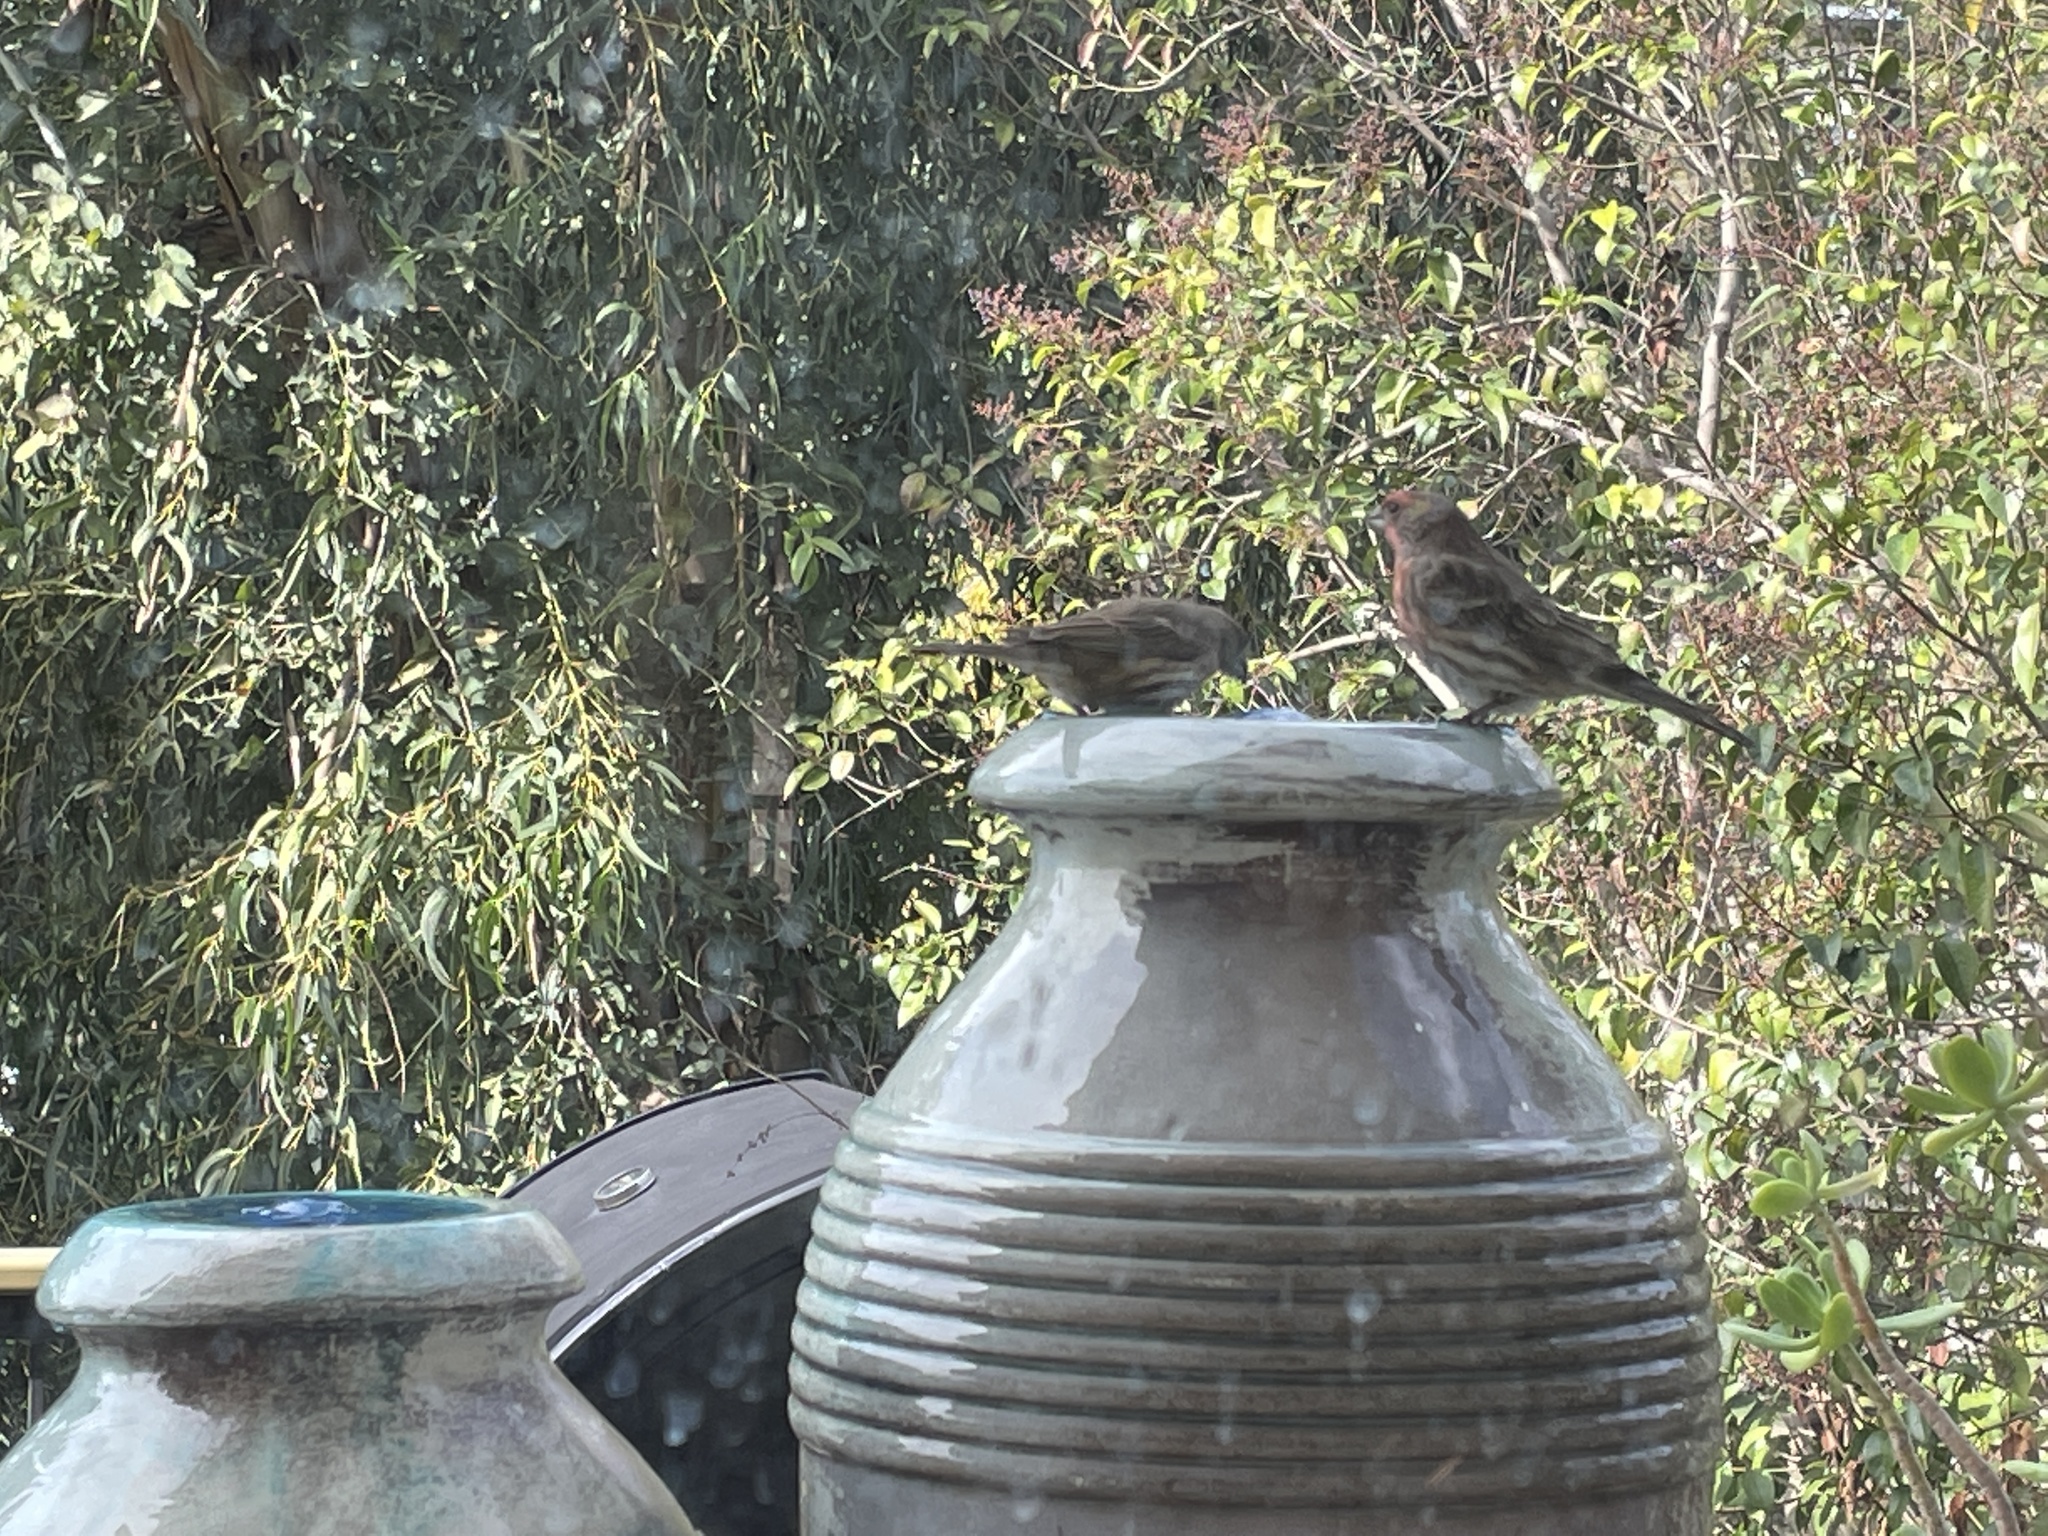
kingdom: Animalia
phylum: Chordata
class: Aves
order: Passeriformes
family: Fringillidae
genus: Haemorhous
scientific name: Haemorhous mexicanus
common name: House finch
